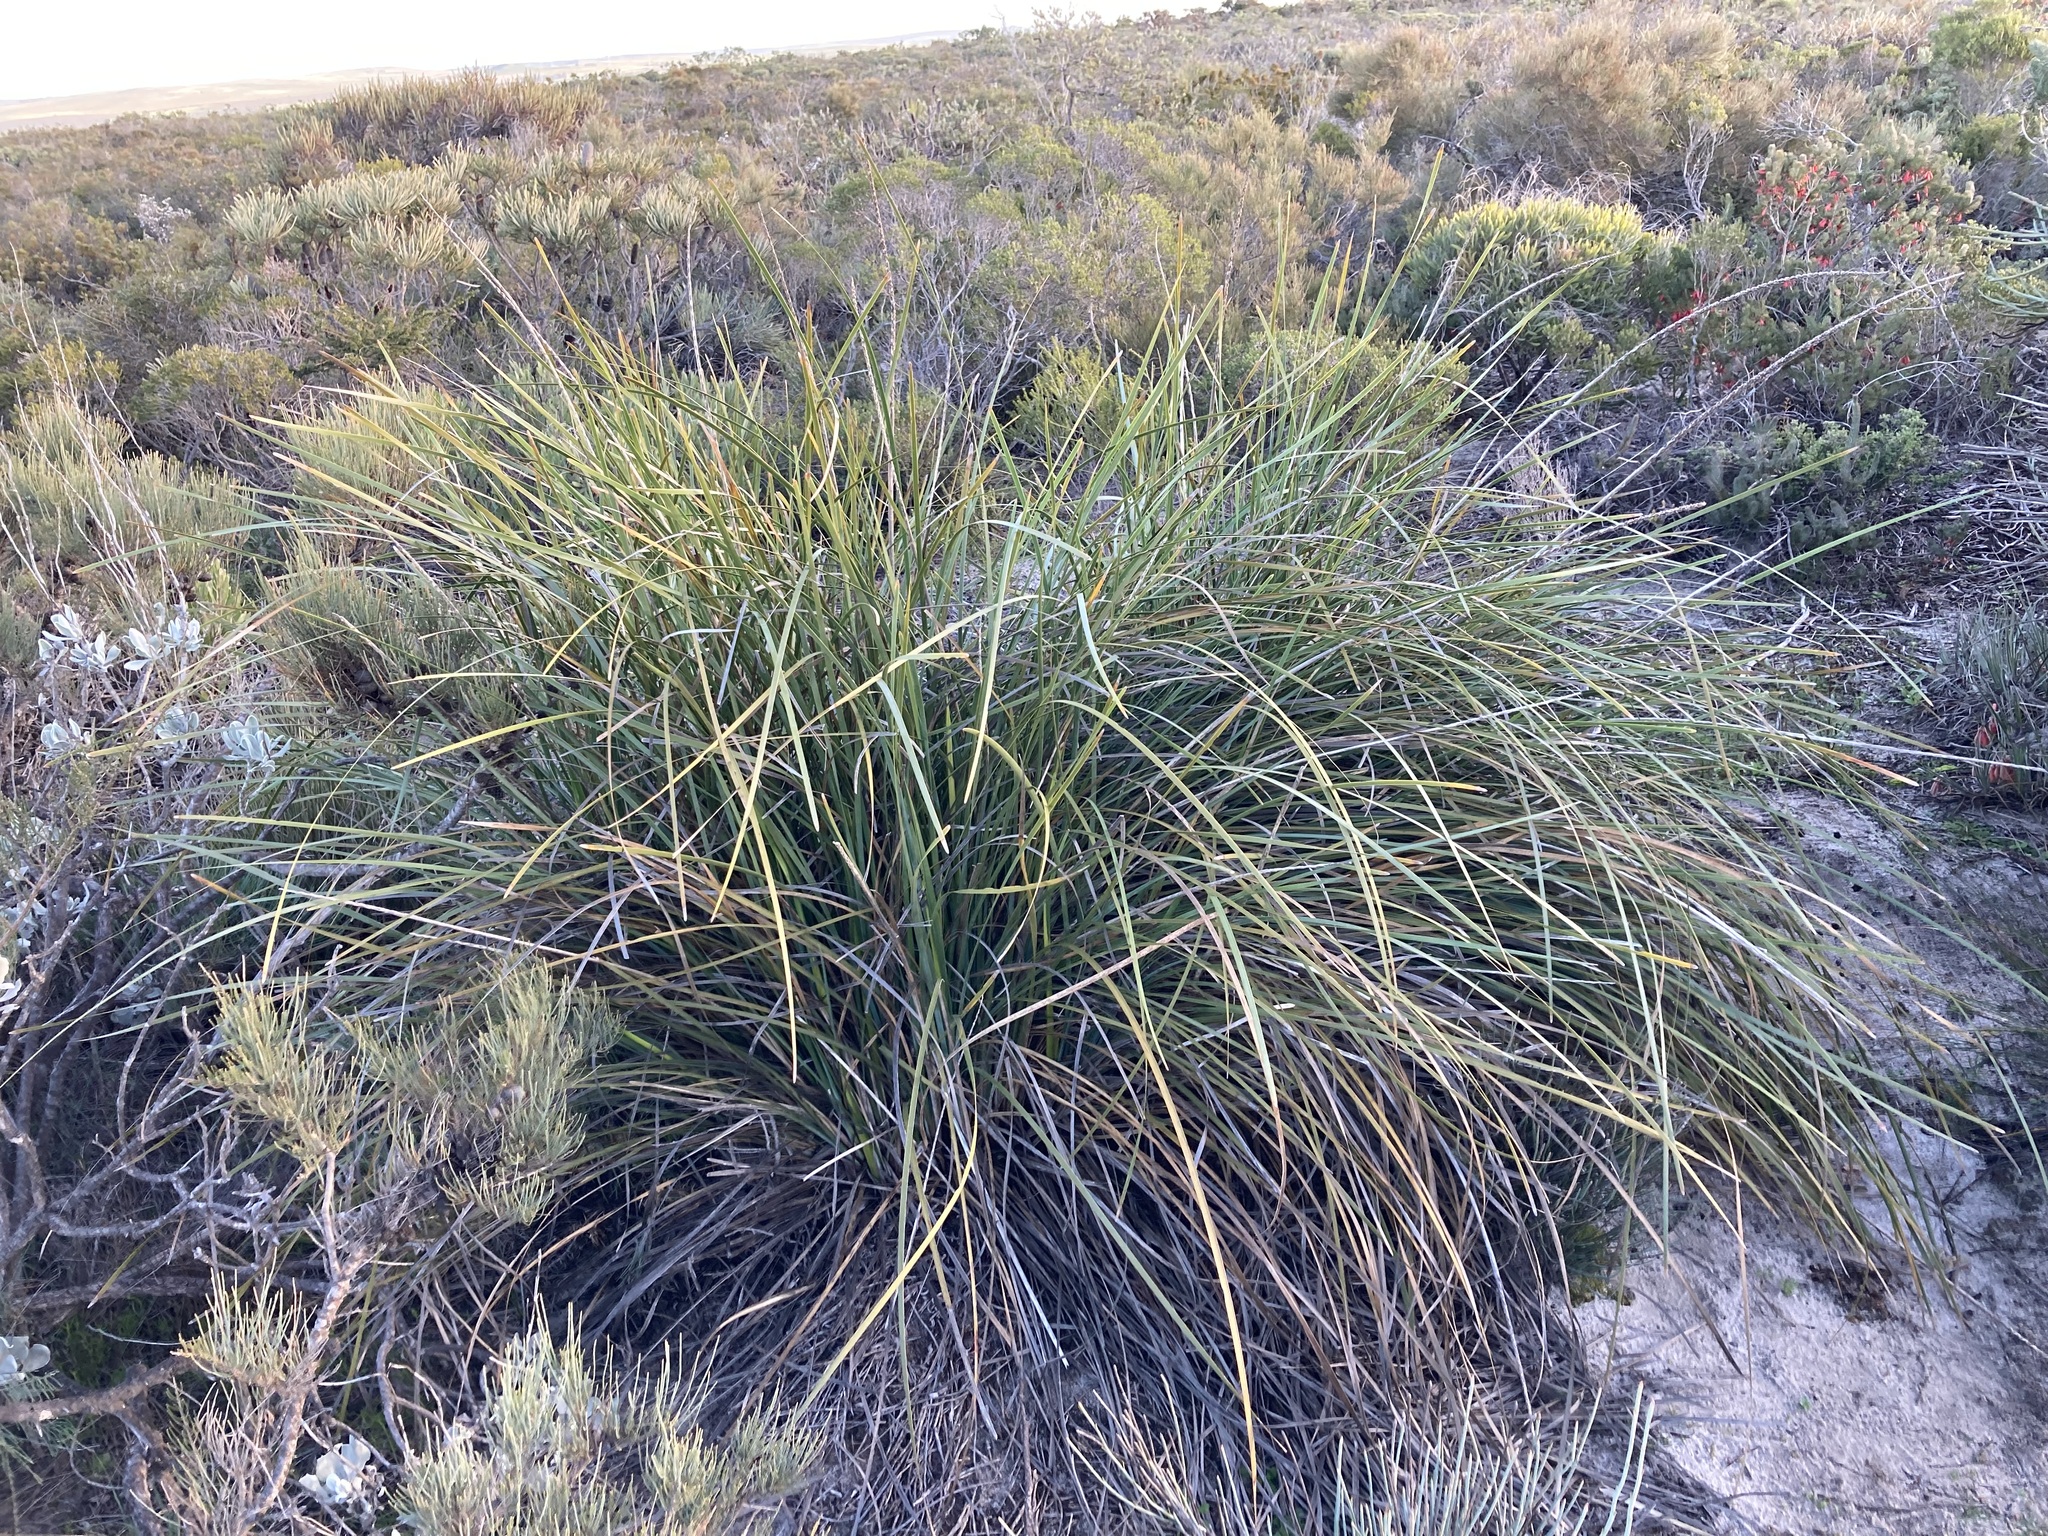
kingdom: Plantae
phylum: Tracheophyta
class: Liliopsida
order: Asparagales
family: Asparagaceae
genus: Lomandra
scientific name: Lomandra hastilis
